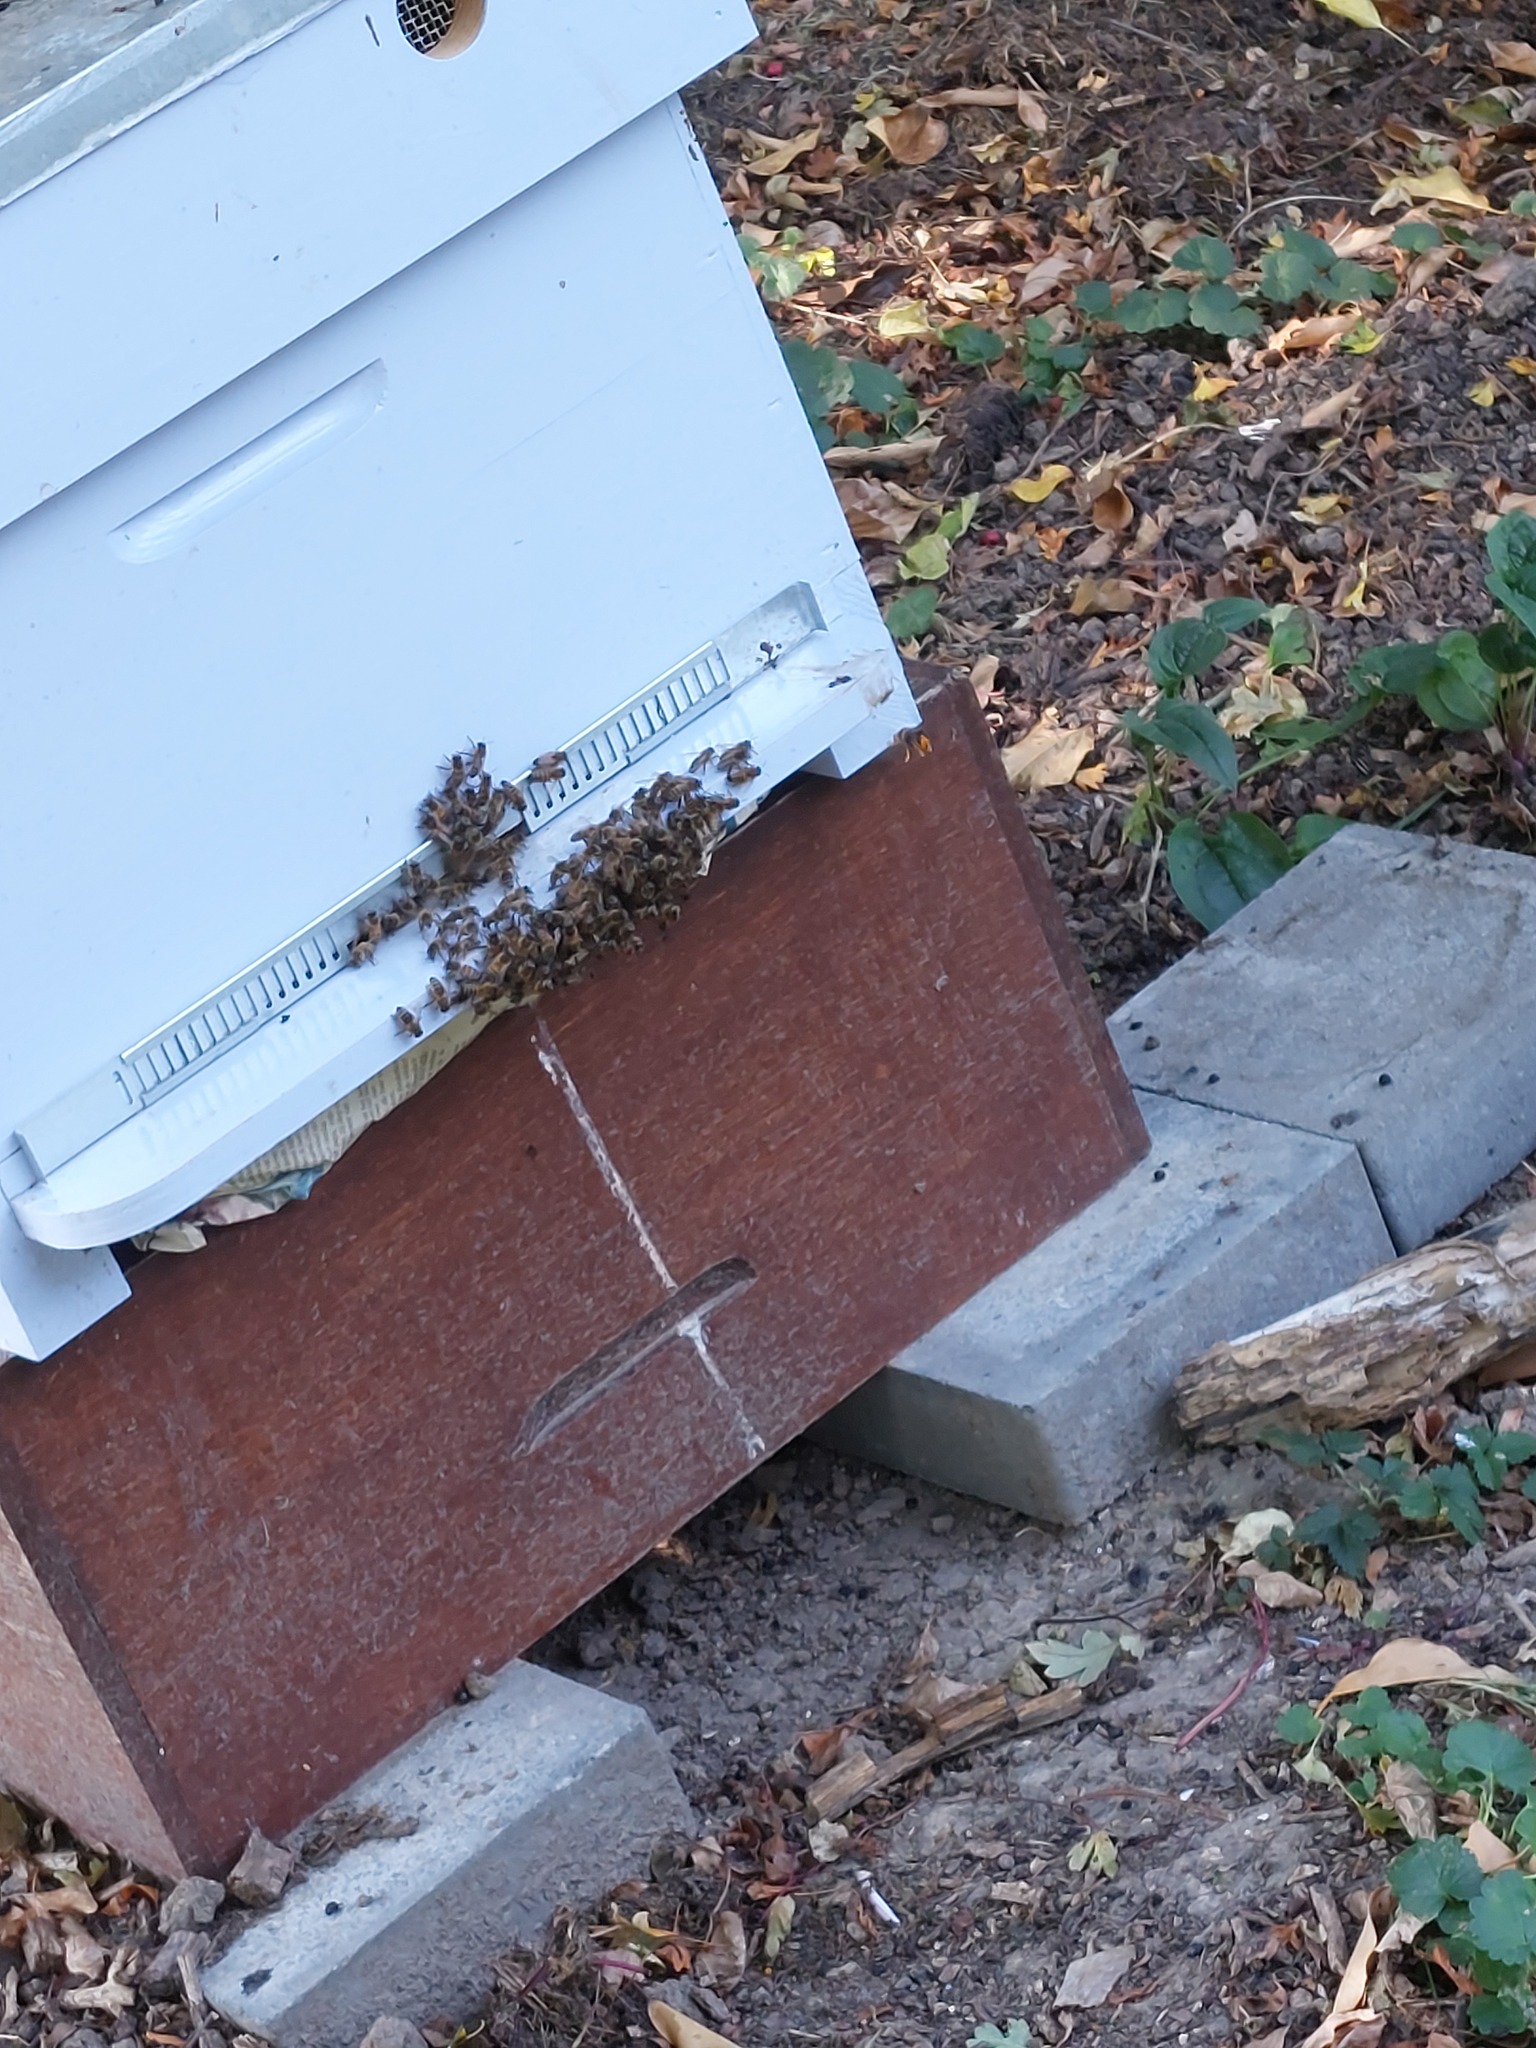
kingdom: Animalia
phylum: Arthropoda
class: Insecta
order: Hymenoptera
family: Vespidae
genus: Vespa
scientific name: Vespa velutina
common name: Asian hornet
